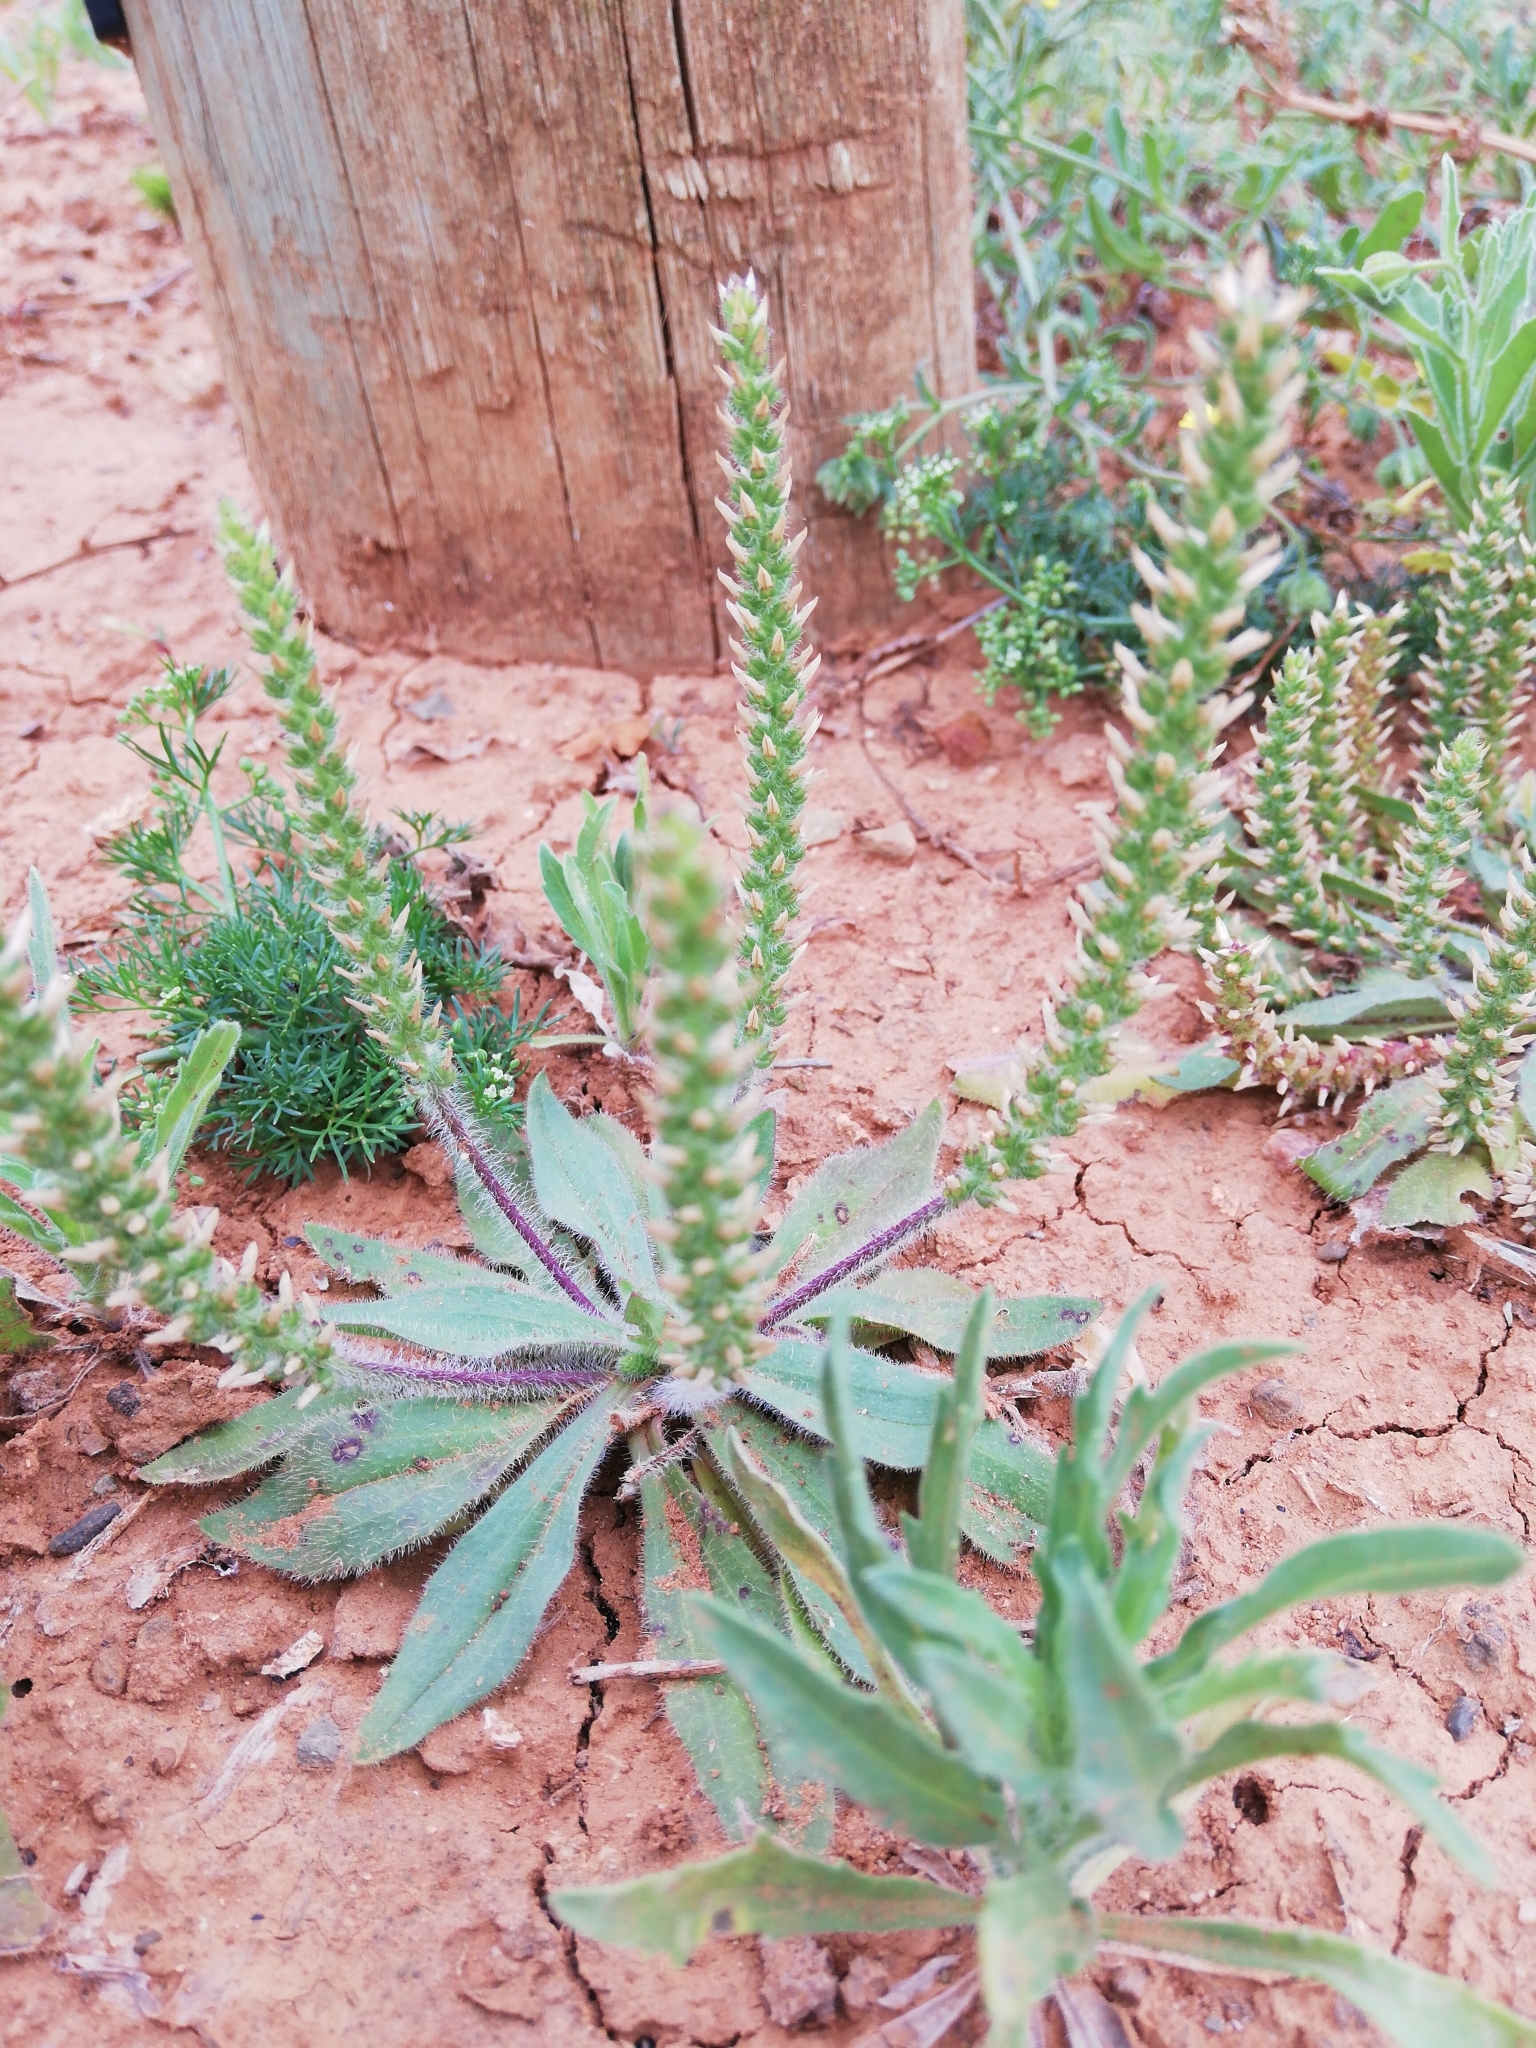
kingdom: Plantae
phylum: Tracheophyta
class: Magnoliopsida
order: Lamiales
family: Plantaginaceae
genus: Plantago
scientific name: Plantago virginica
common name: Hoary plantain
